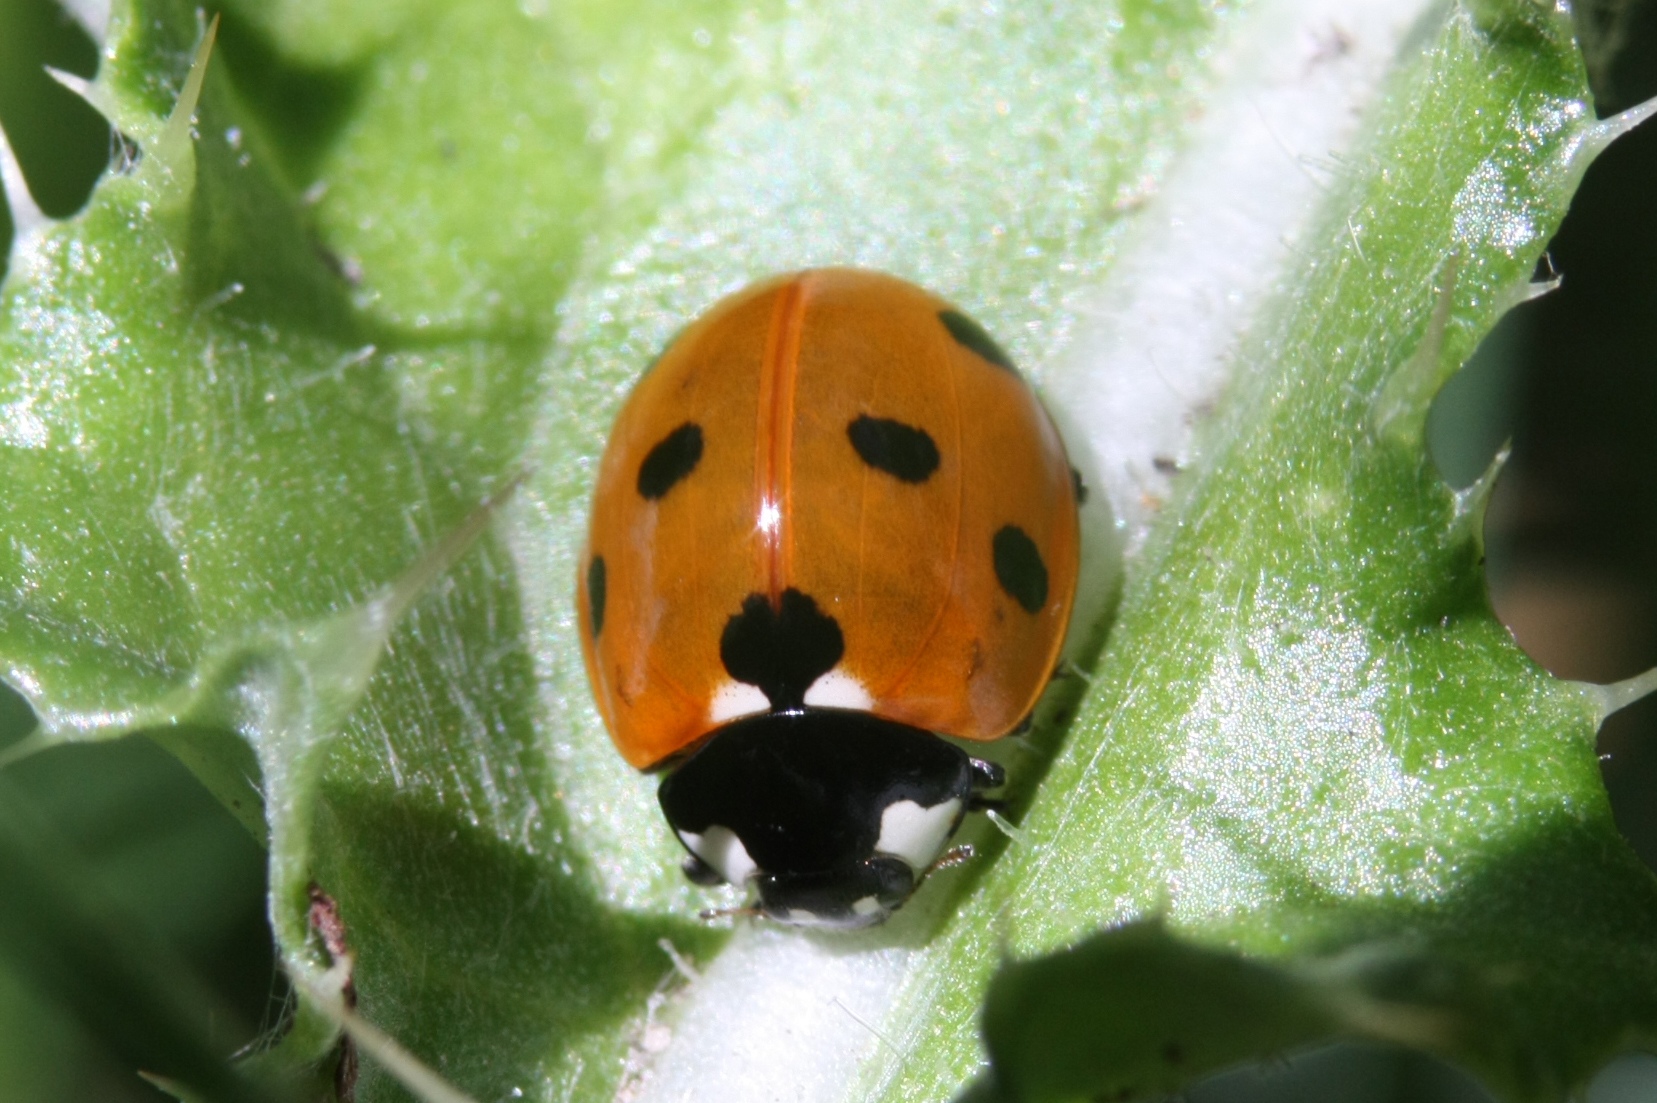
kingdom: Animalia
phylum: Arthropoda
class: Insecta
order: Coleoptera
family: Coccinellidae
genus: Coccinella
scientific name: Coccinella septempunctata
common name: Sevenspotted lady beetle
